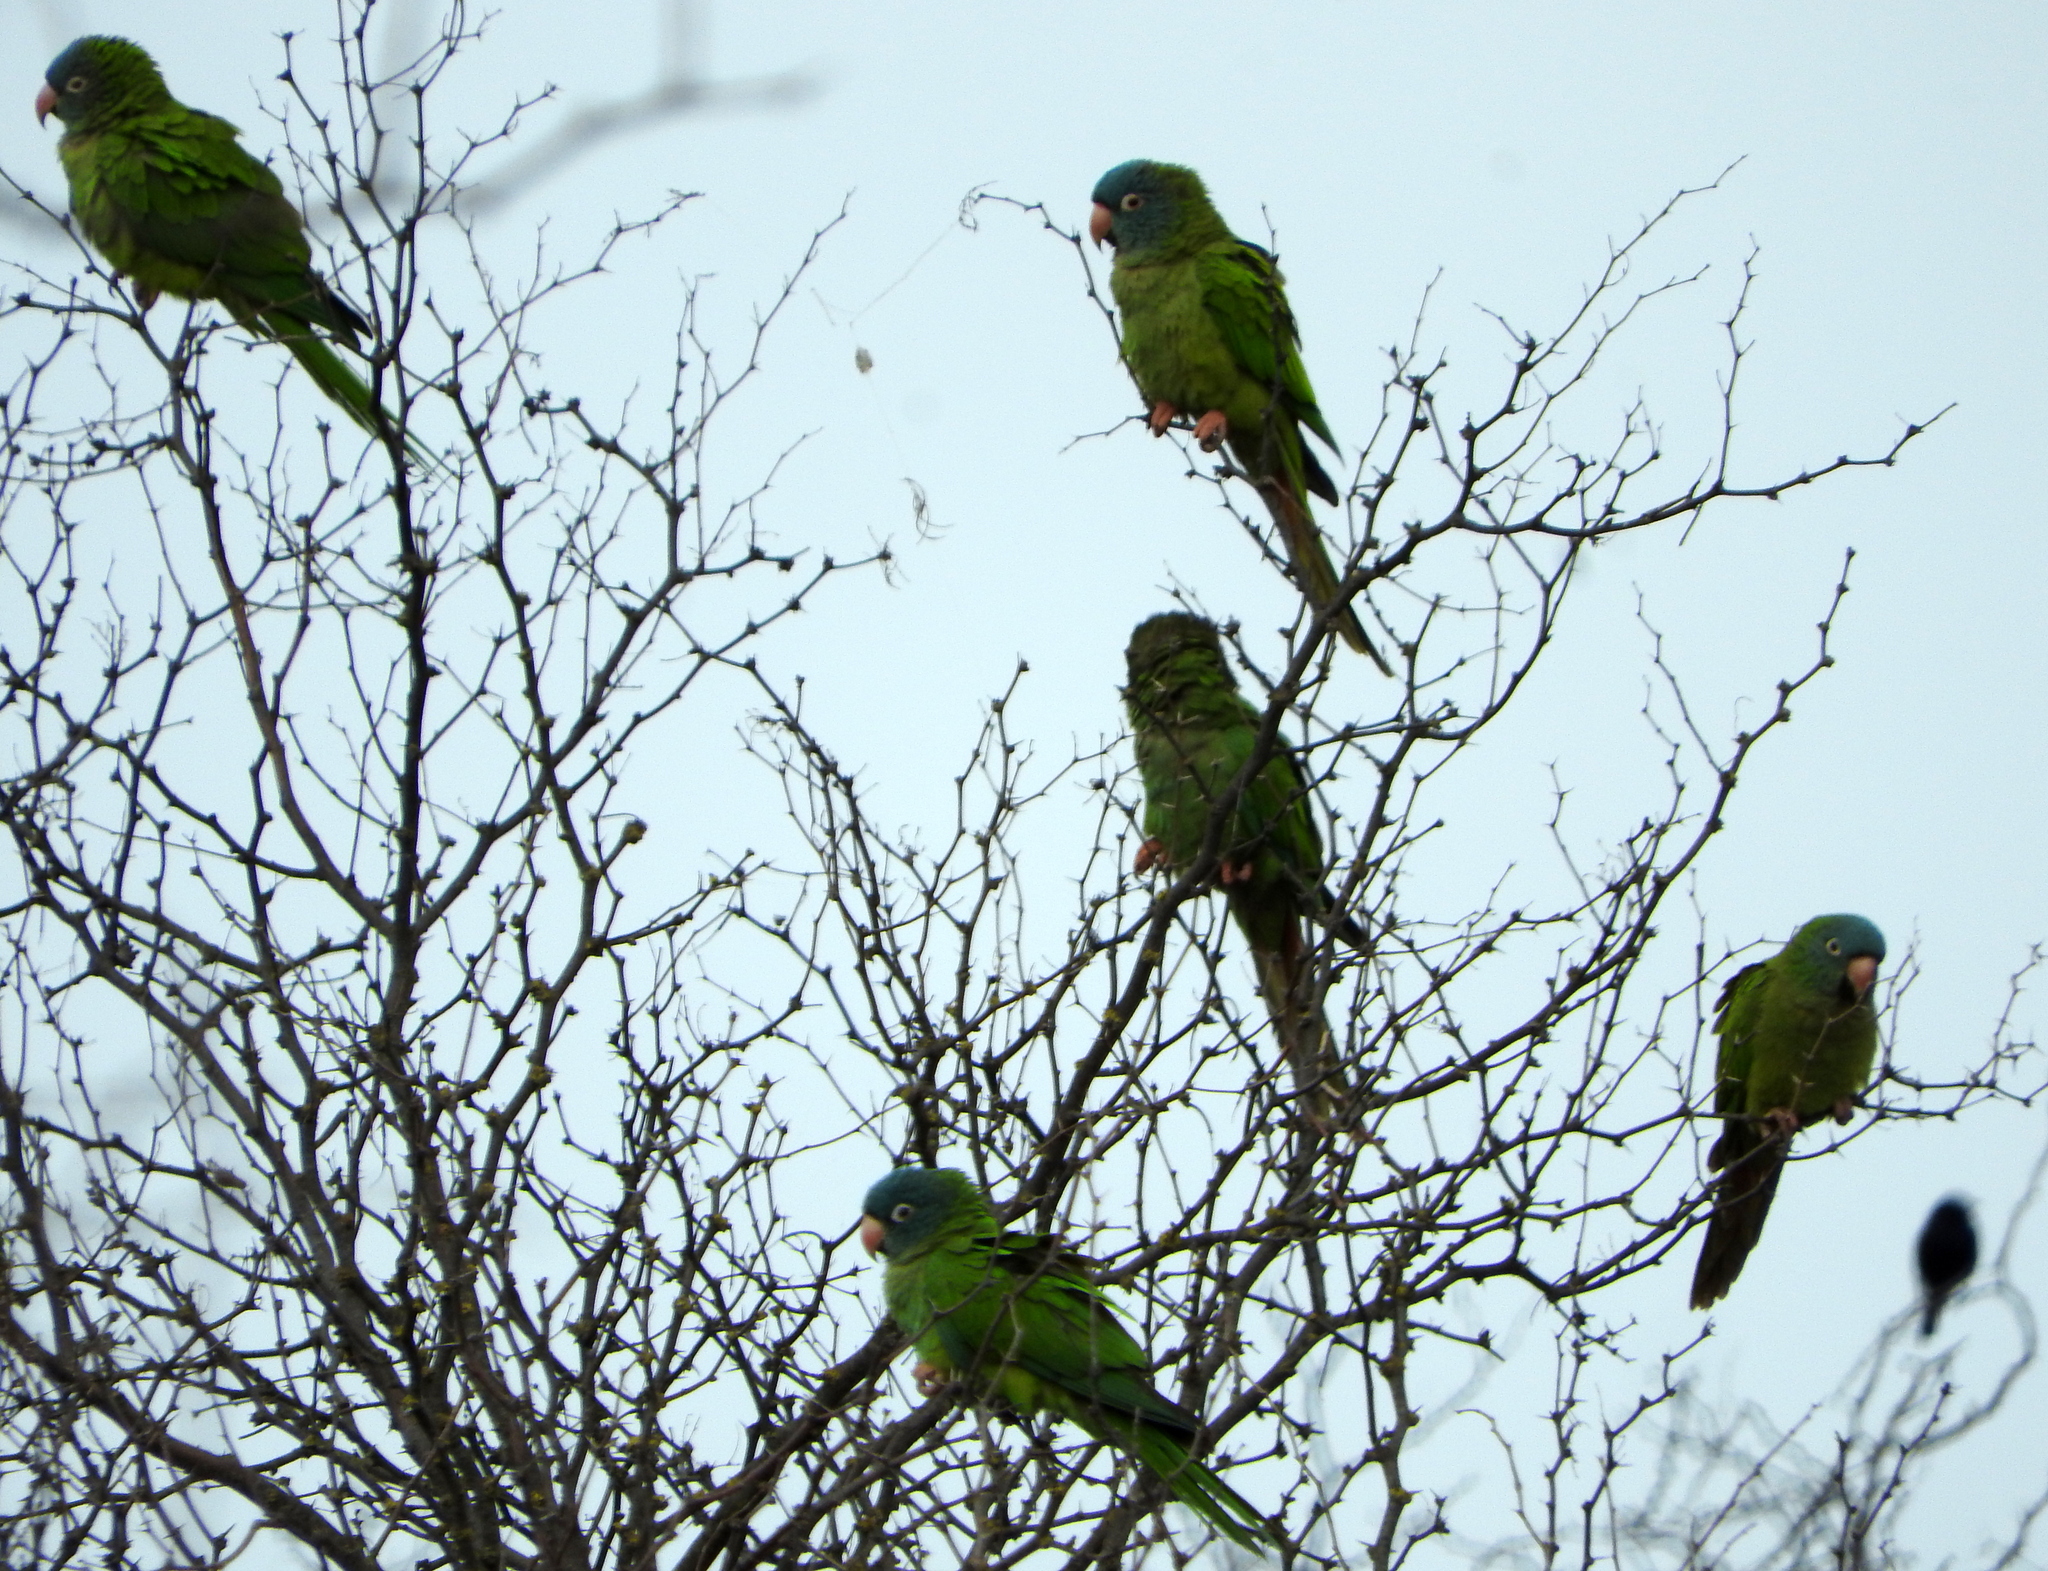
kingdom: Animalia
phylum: Chordata
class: Aves
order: Psittaciformes
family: Psittacidae
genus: Aratinga
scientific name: Aratinga acuticaudata
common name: Blue-crowned parakeet
